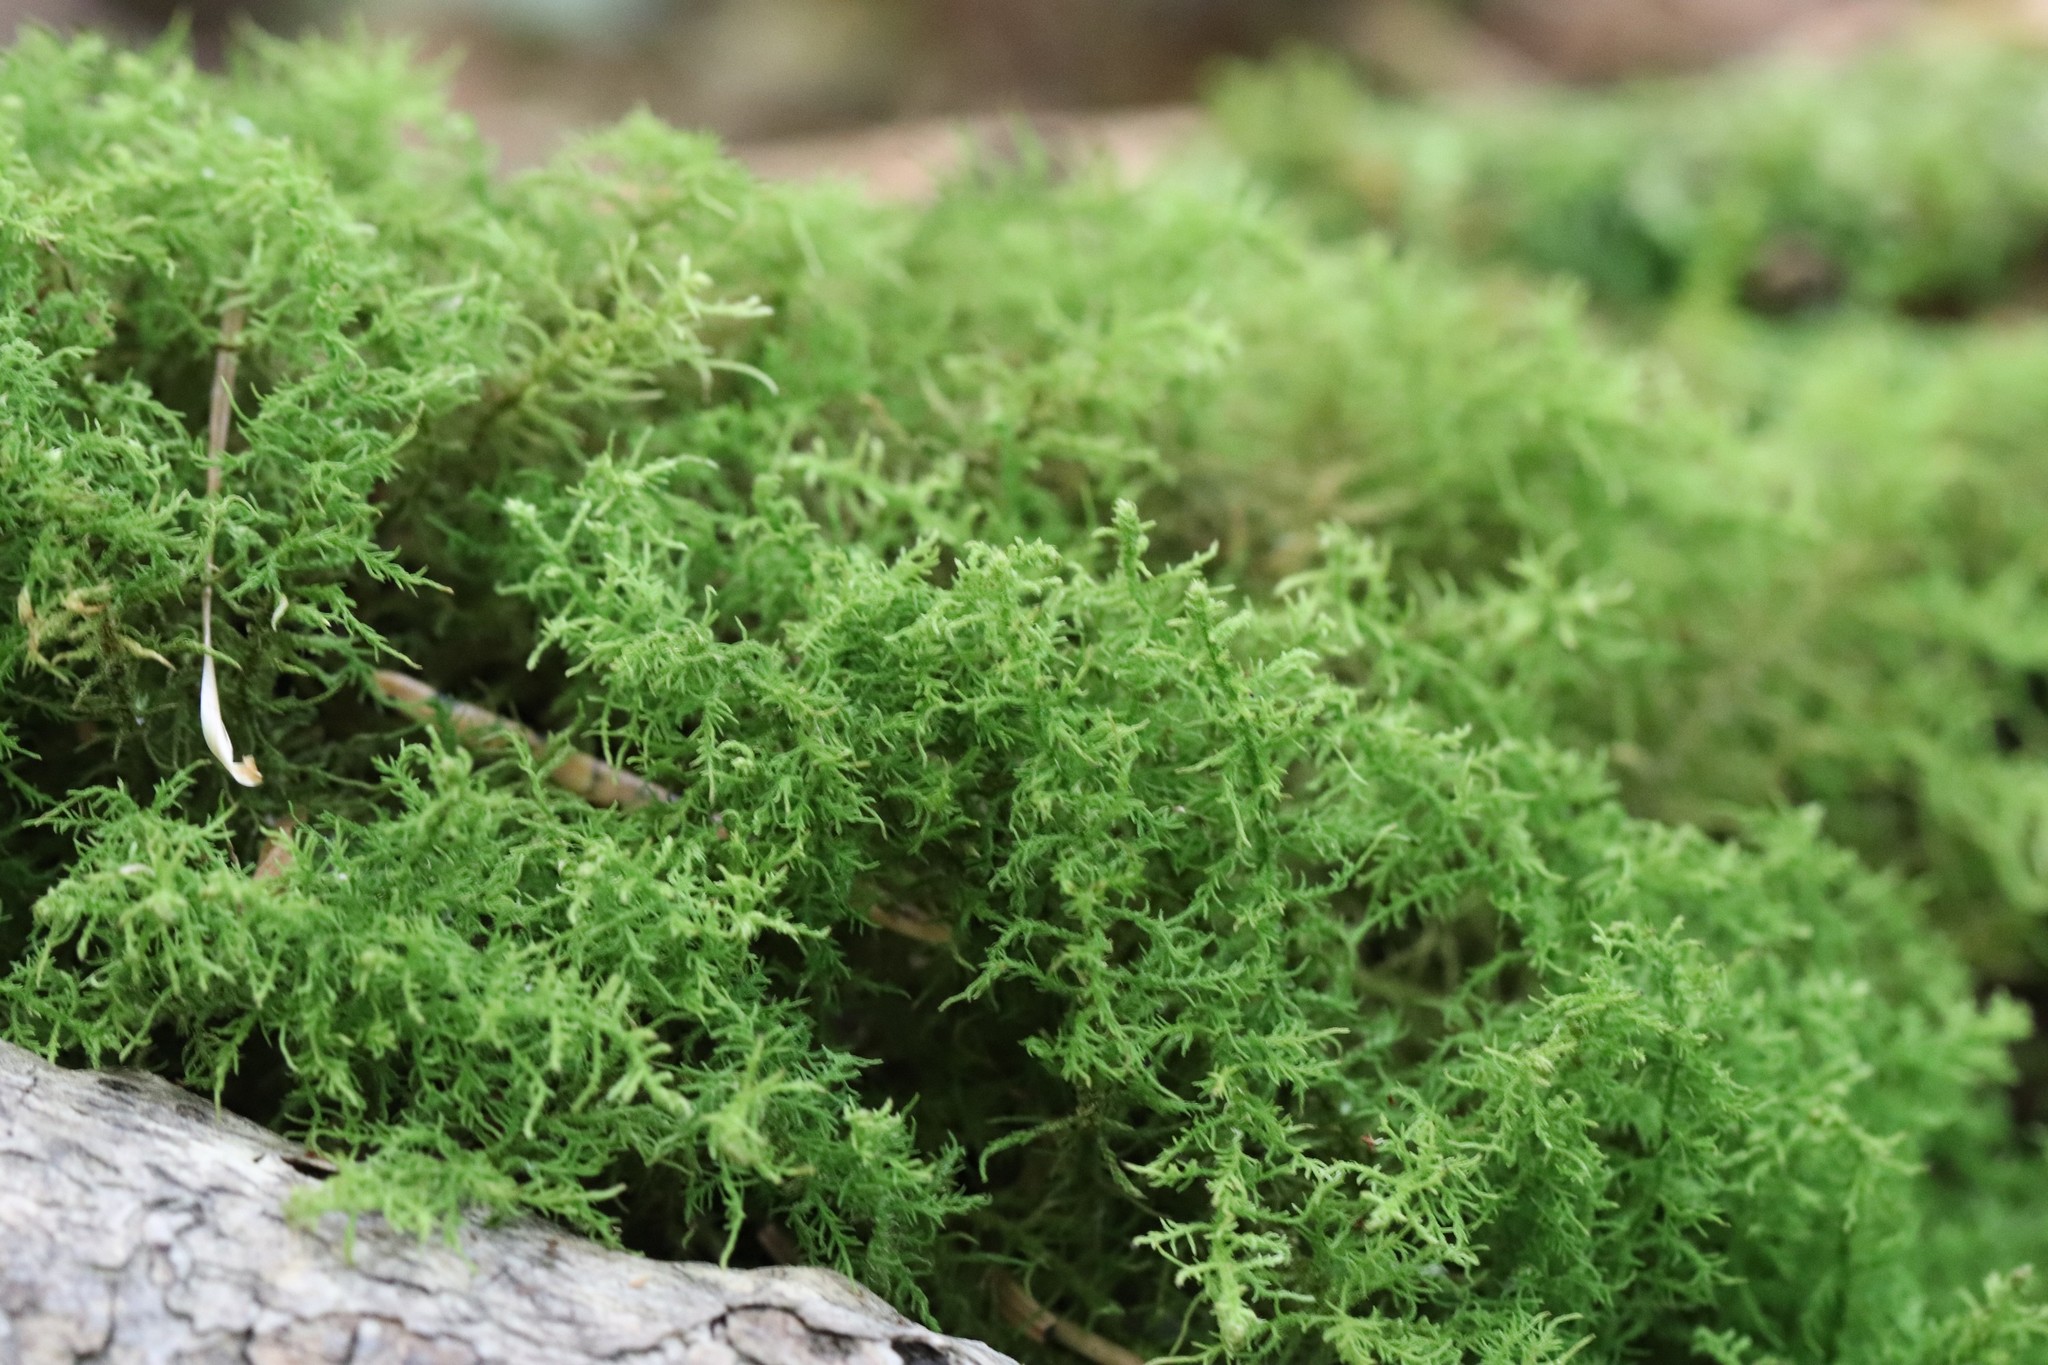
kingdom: Plantae
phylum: Bryophyta
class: Bryopsida
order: Hypnales
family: Thuidiaceae
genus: Bryonoguchia
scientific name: Bryonoguchia molkenboeri
